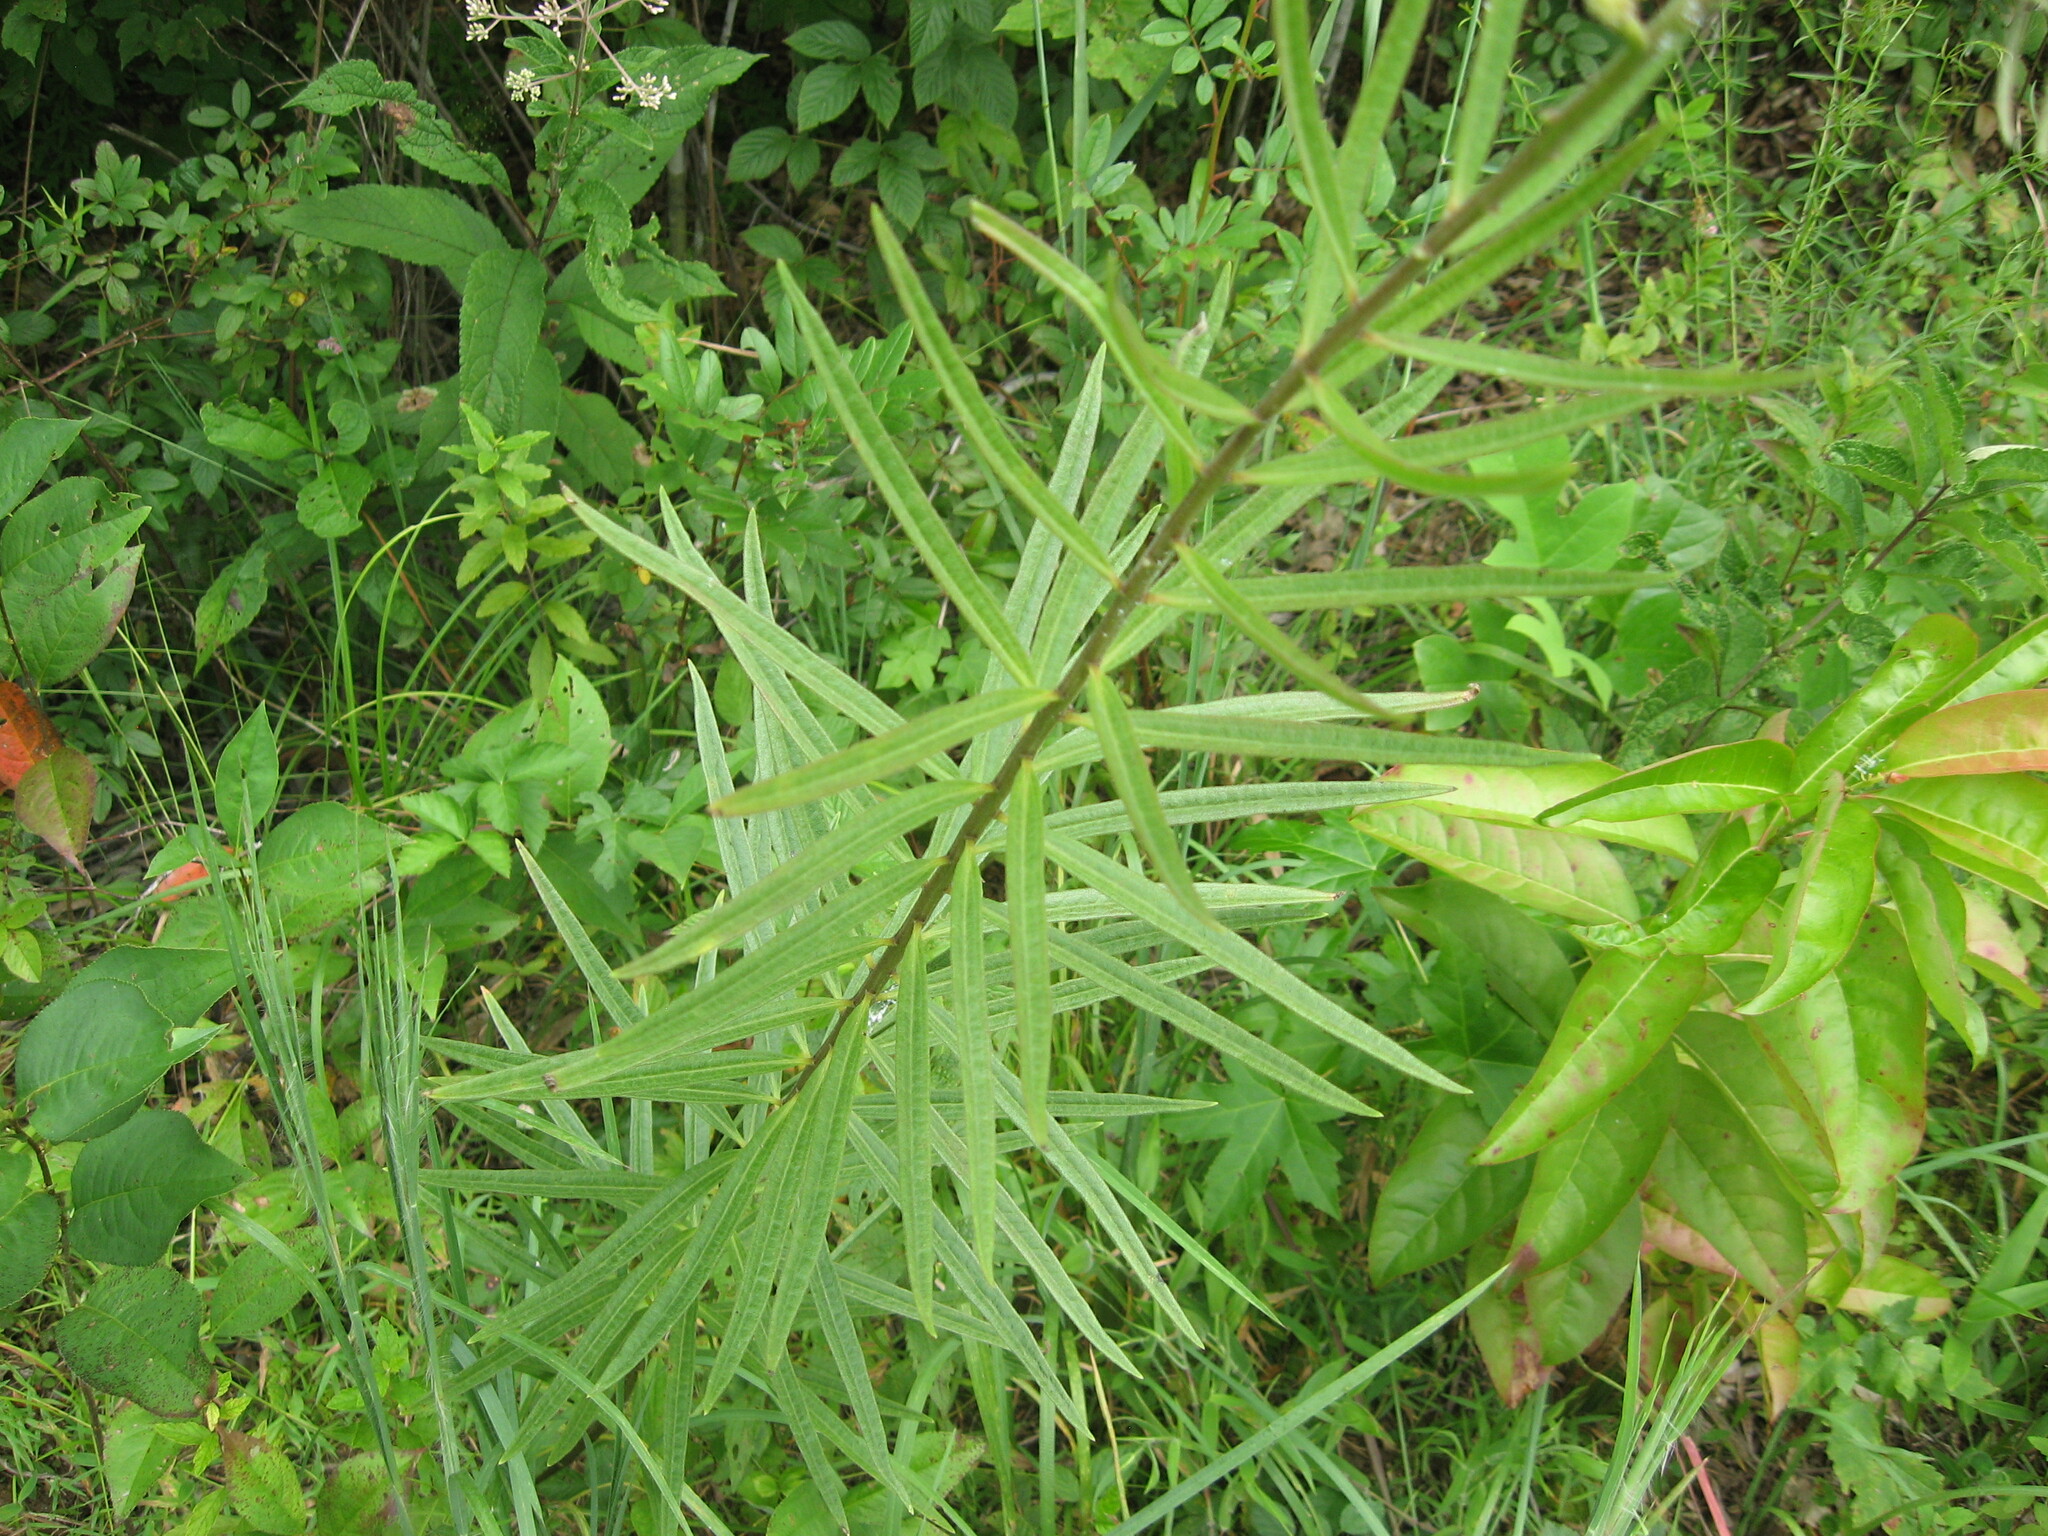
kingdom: Plantae
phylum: Tracheophyta
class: Magnoliopsida
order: Gentianales
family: Apocynaceae
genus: Asclepias
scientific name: Asclepias hirtella
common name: Prairie milkweed
